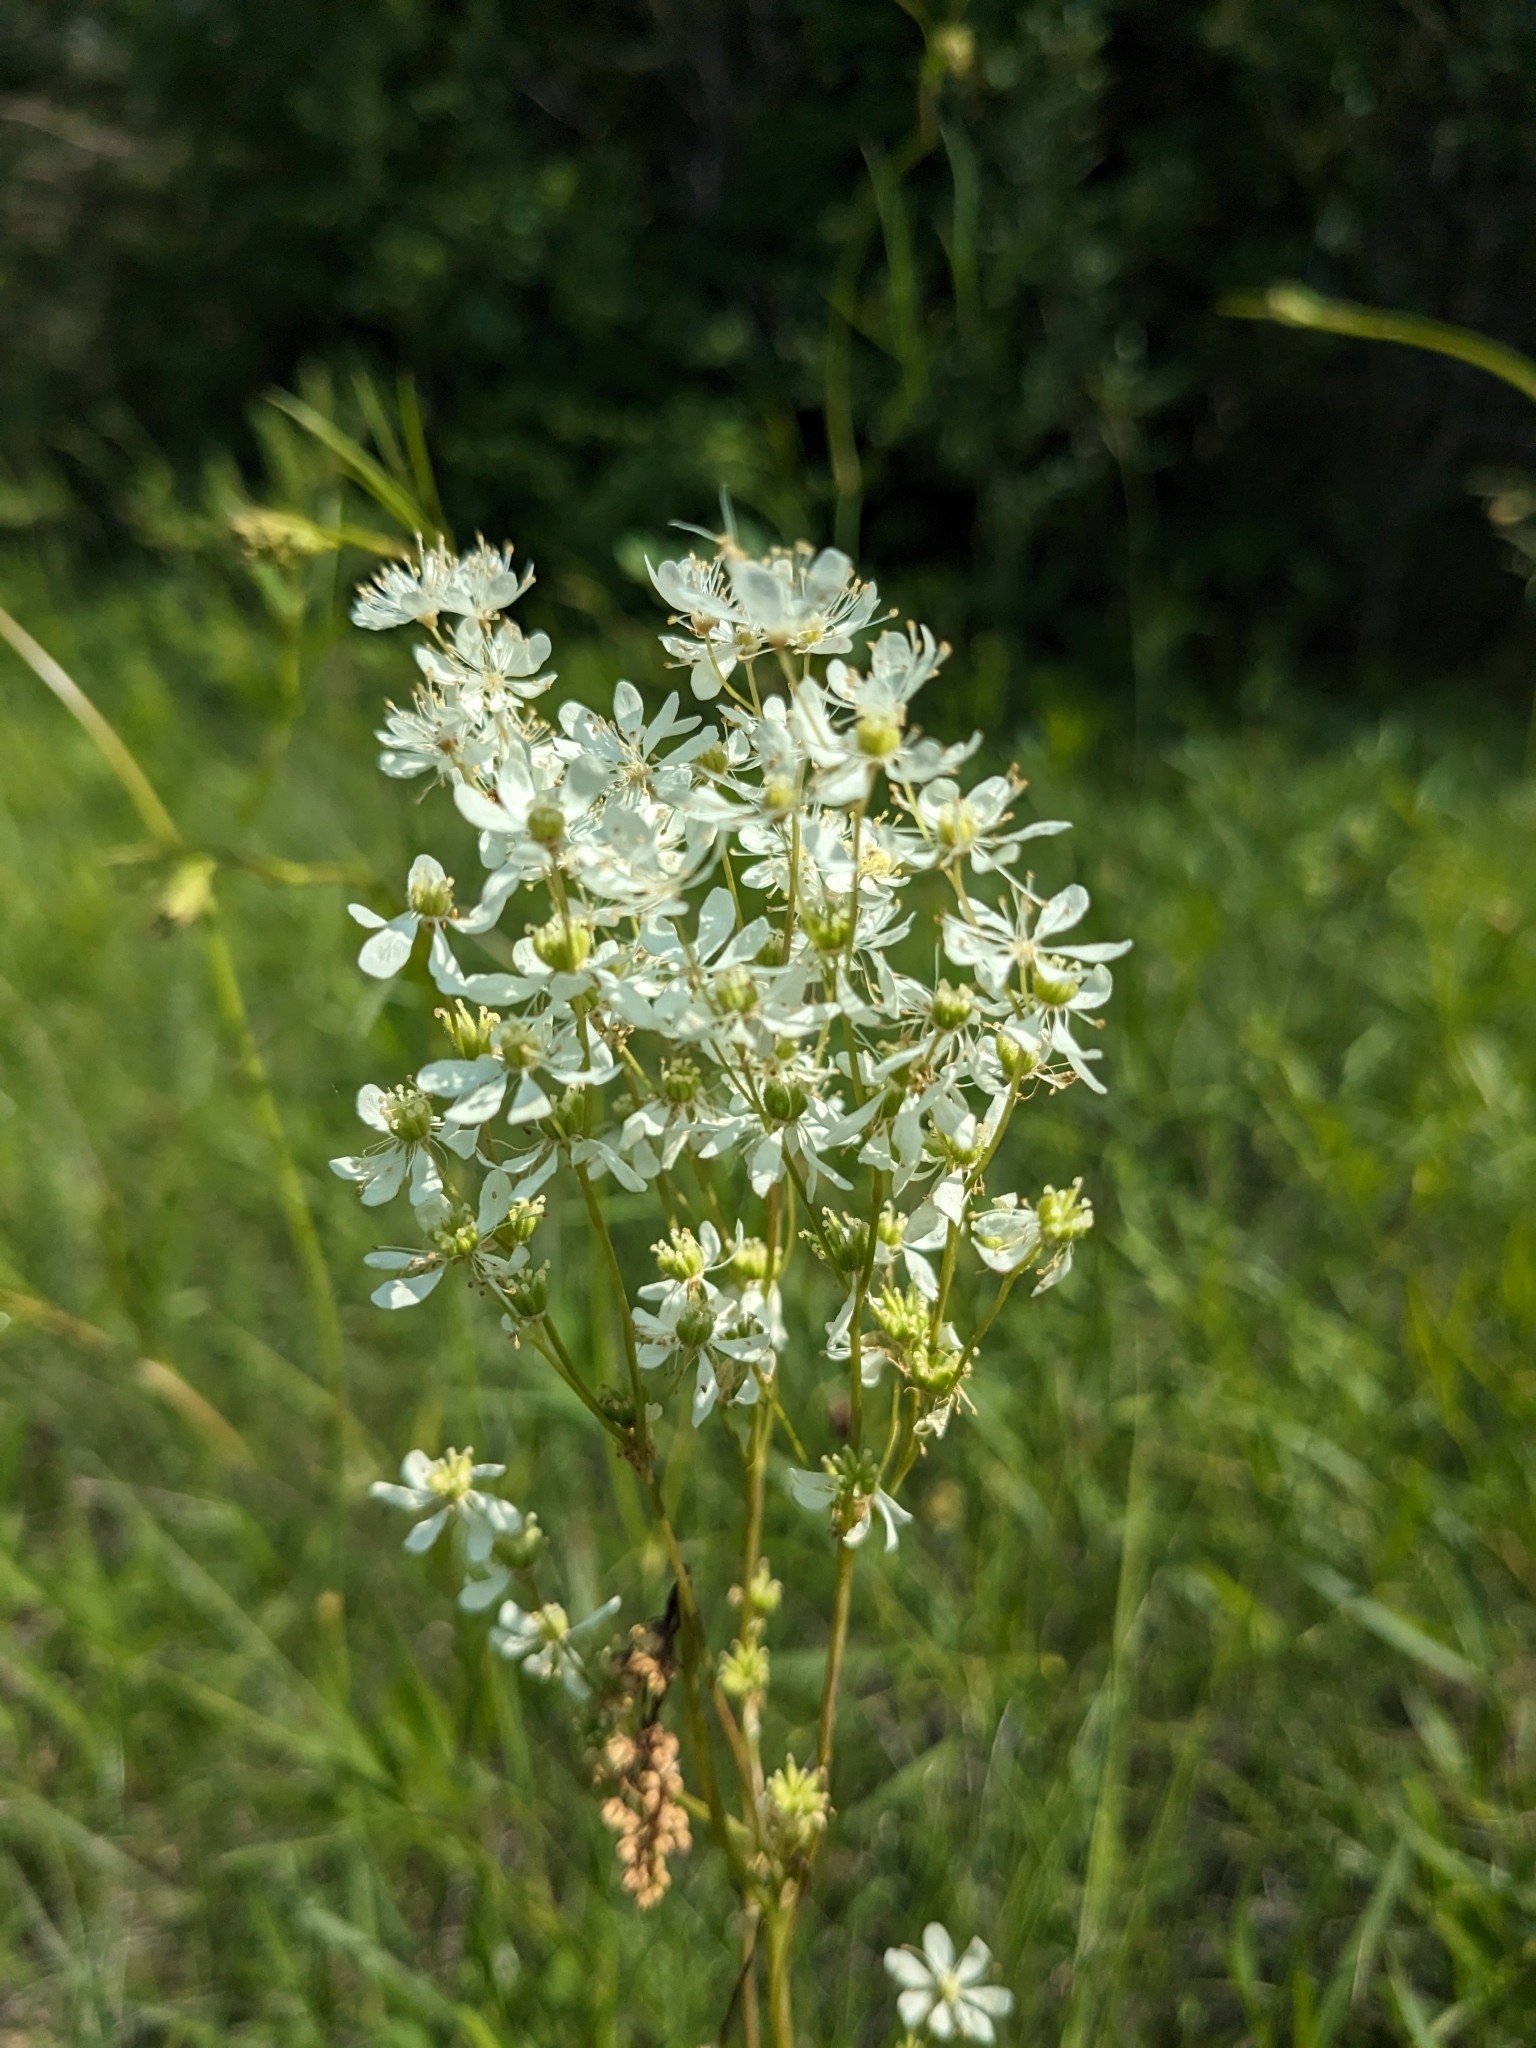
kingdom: Plantae
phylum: Tracheophyta
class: Magnoliopsida
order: Rosales
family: Rosaceae
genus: Filipendula
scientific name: Filipendula vulgaris
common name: Dropwort
